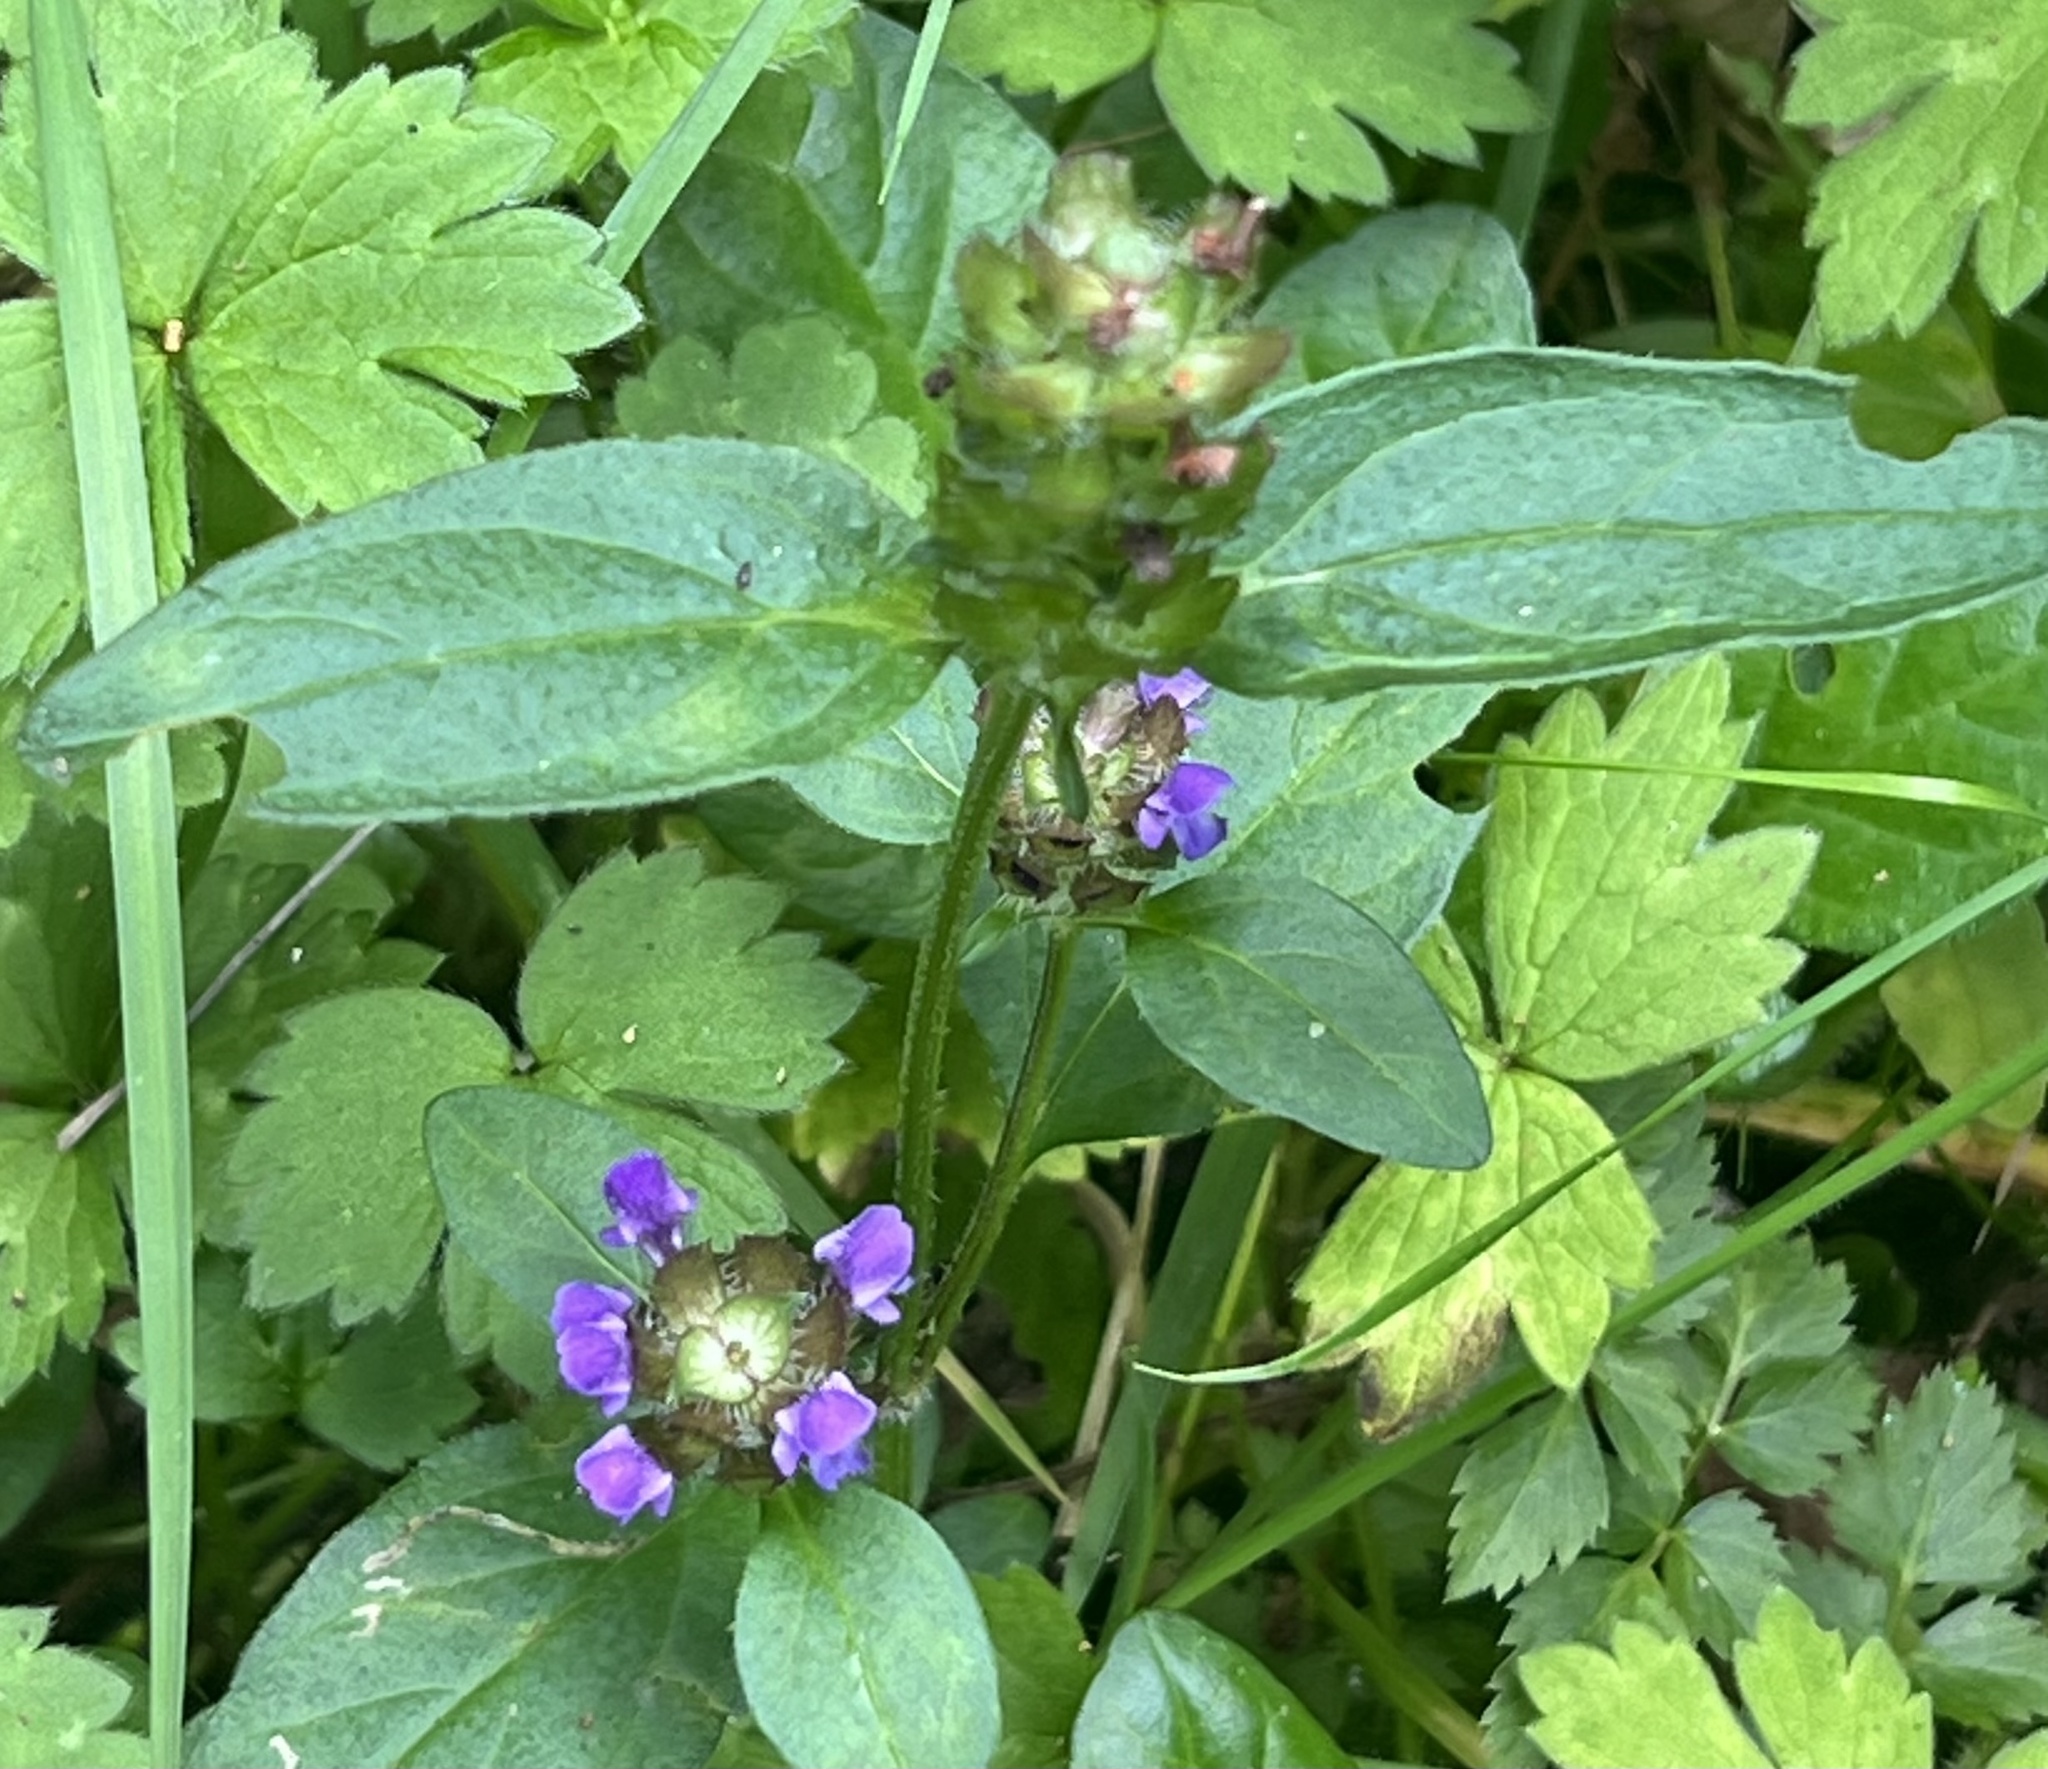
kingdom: Plantae
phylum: Tracheophyta
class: Magnoliopsida
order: Lamiales
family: Lamiaceae
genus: Prunella
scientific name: Prunella vulgaris
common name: Heal-all
